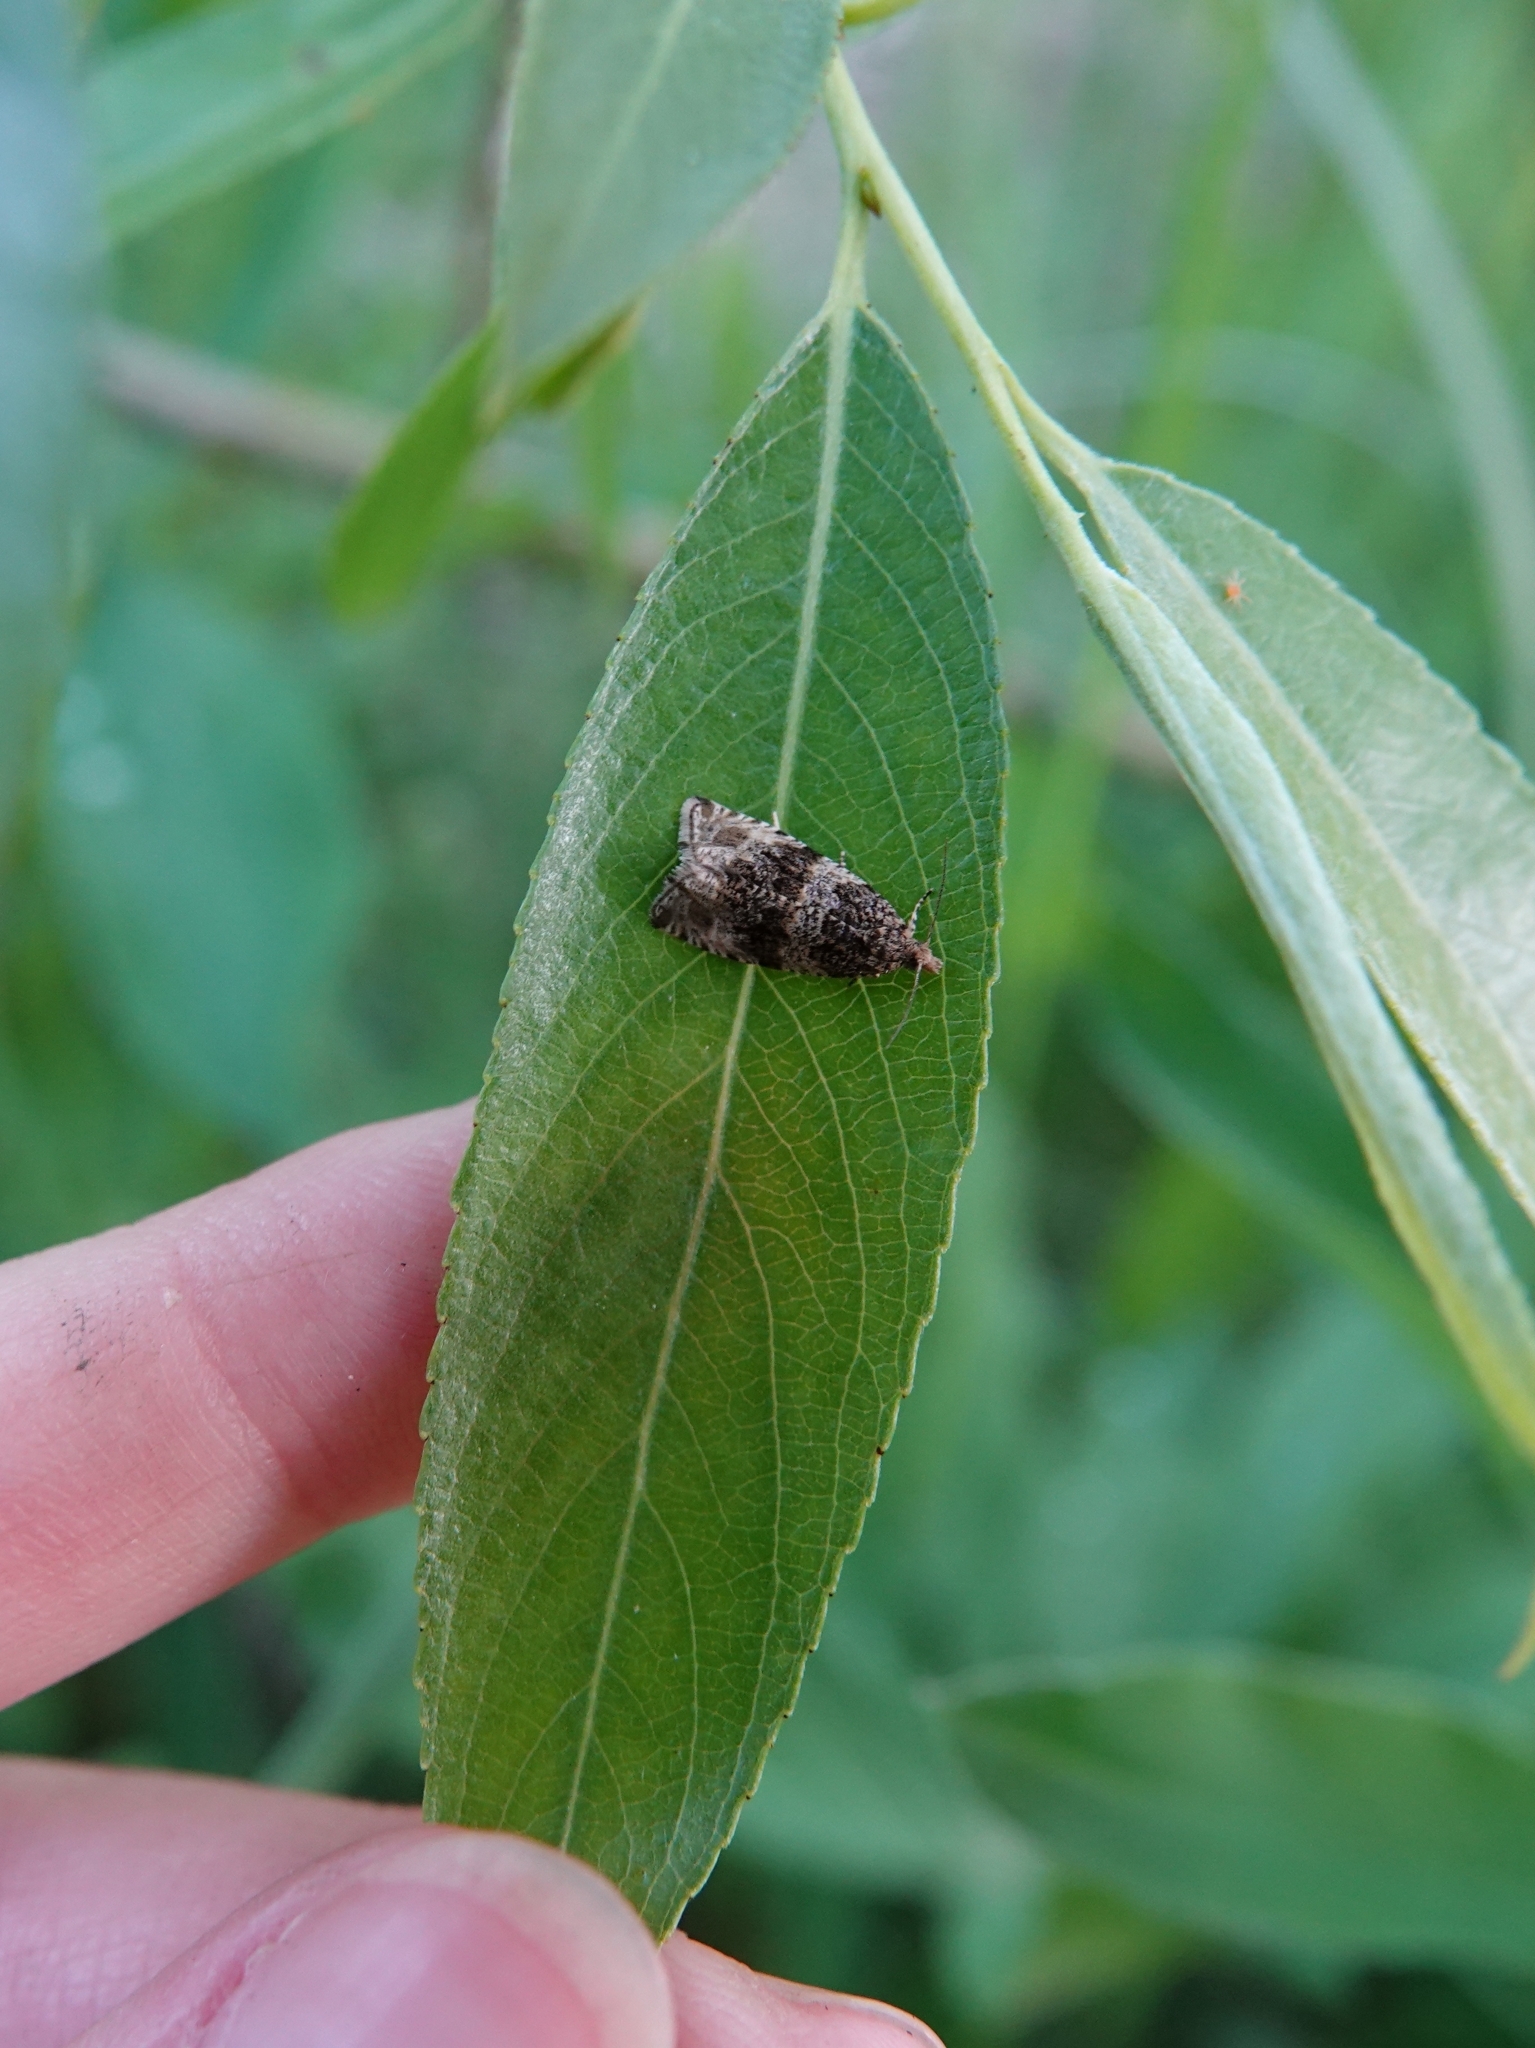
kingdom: Animalia
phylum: Arthropoda
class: Insecta
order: Lepidoptera
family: Tortricidae
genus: Syricoris
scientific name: Syricoris lacunana
